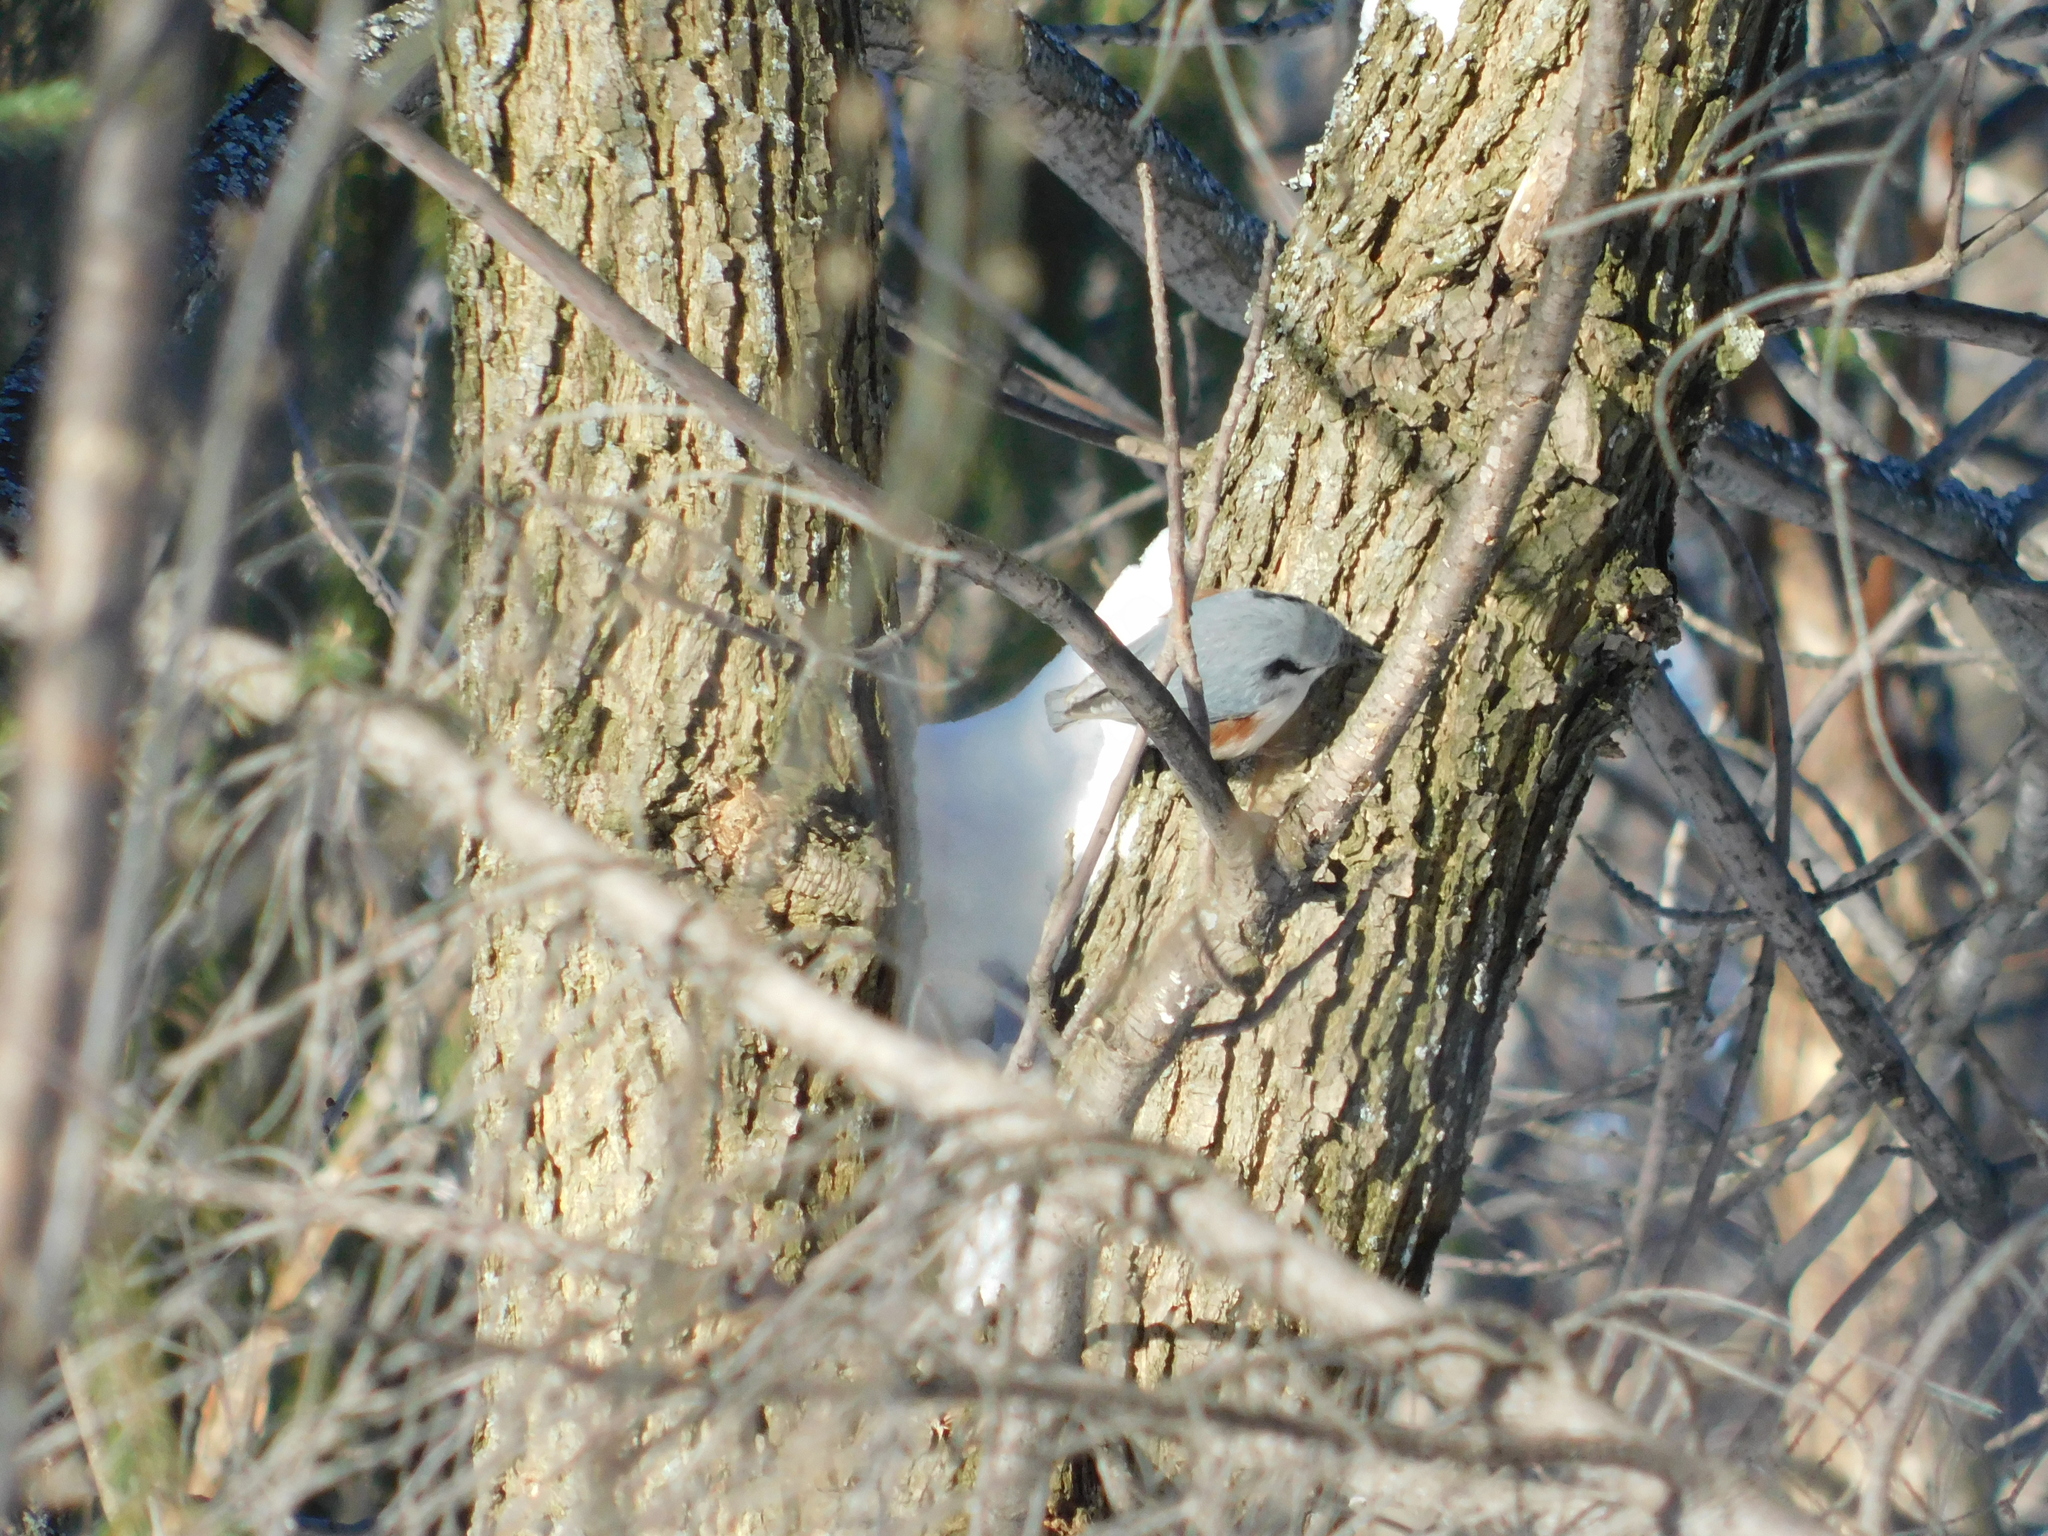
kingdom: Animalia
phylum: Chordata
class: Aves
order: Passeriformes
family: Sittidae
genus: Sitta
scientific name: Sitta europaea
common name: Eurasian nuthatch
